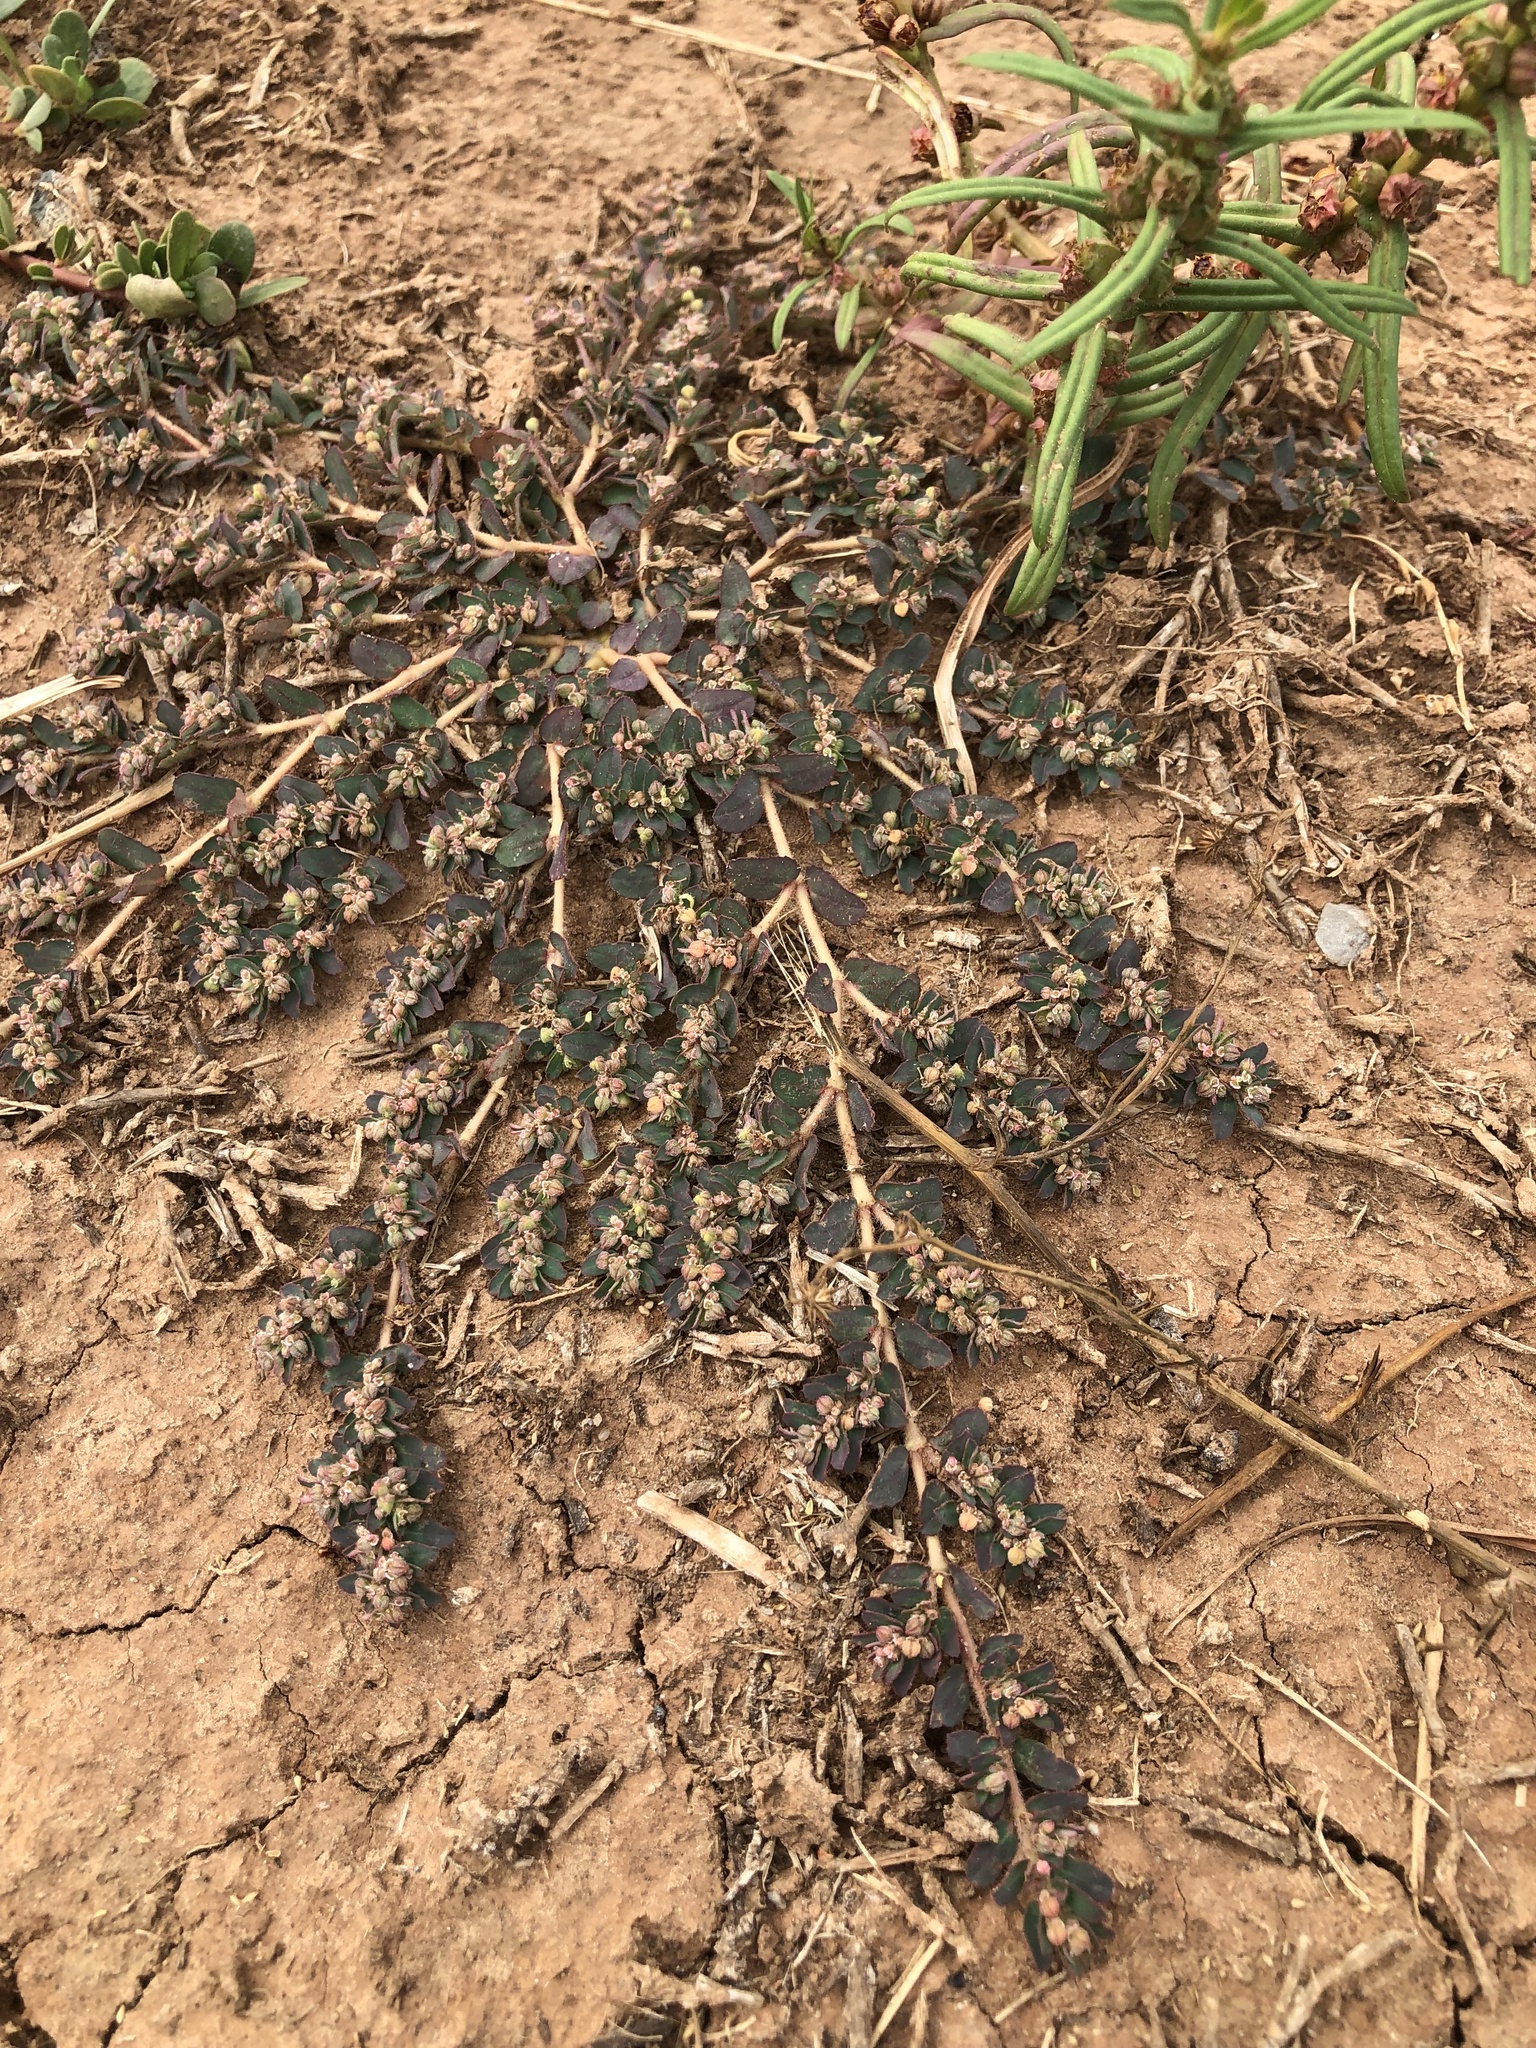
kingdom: Plantae
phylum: Tracheophyta
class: Magnoliopsida
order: Malpighiales
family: Euphorbiaceae
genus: Euphorbia
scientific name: Euphorbia maculata
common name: Spotted spurge
